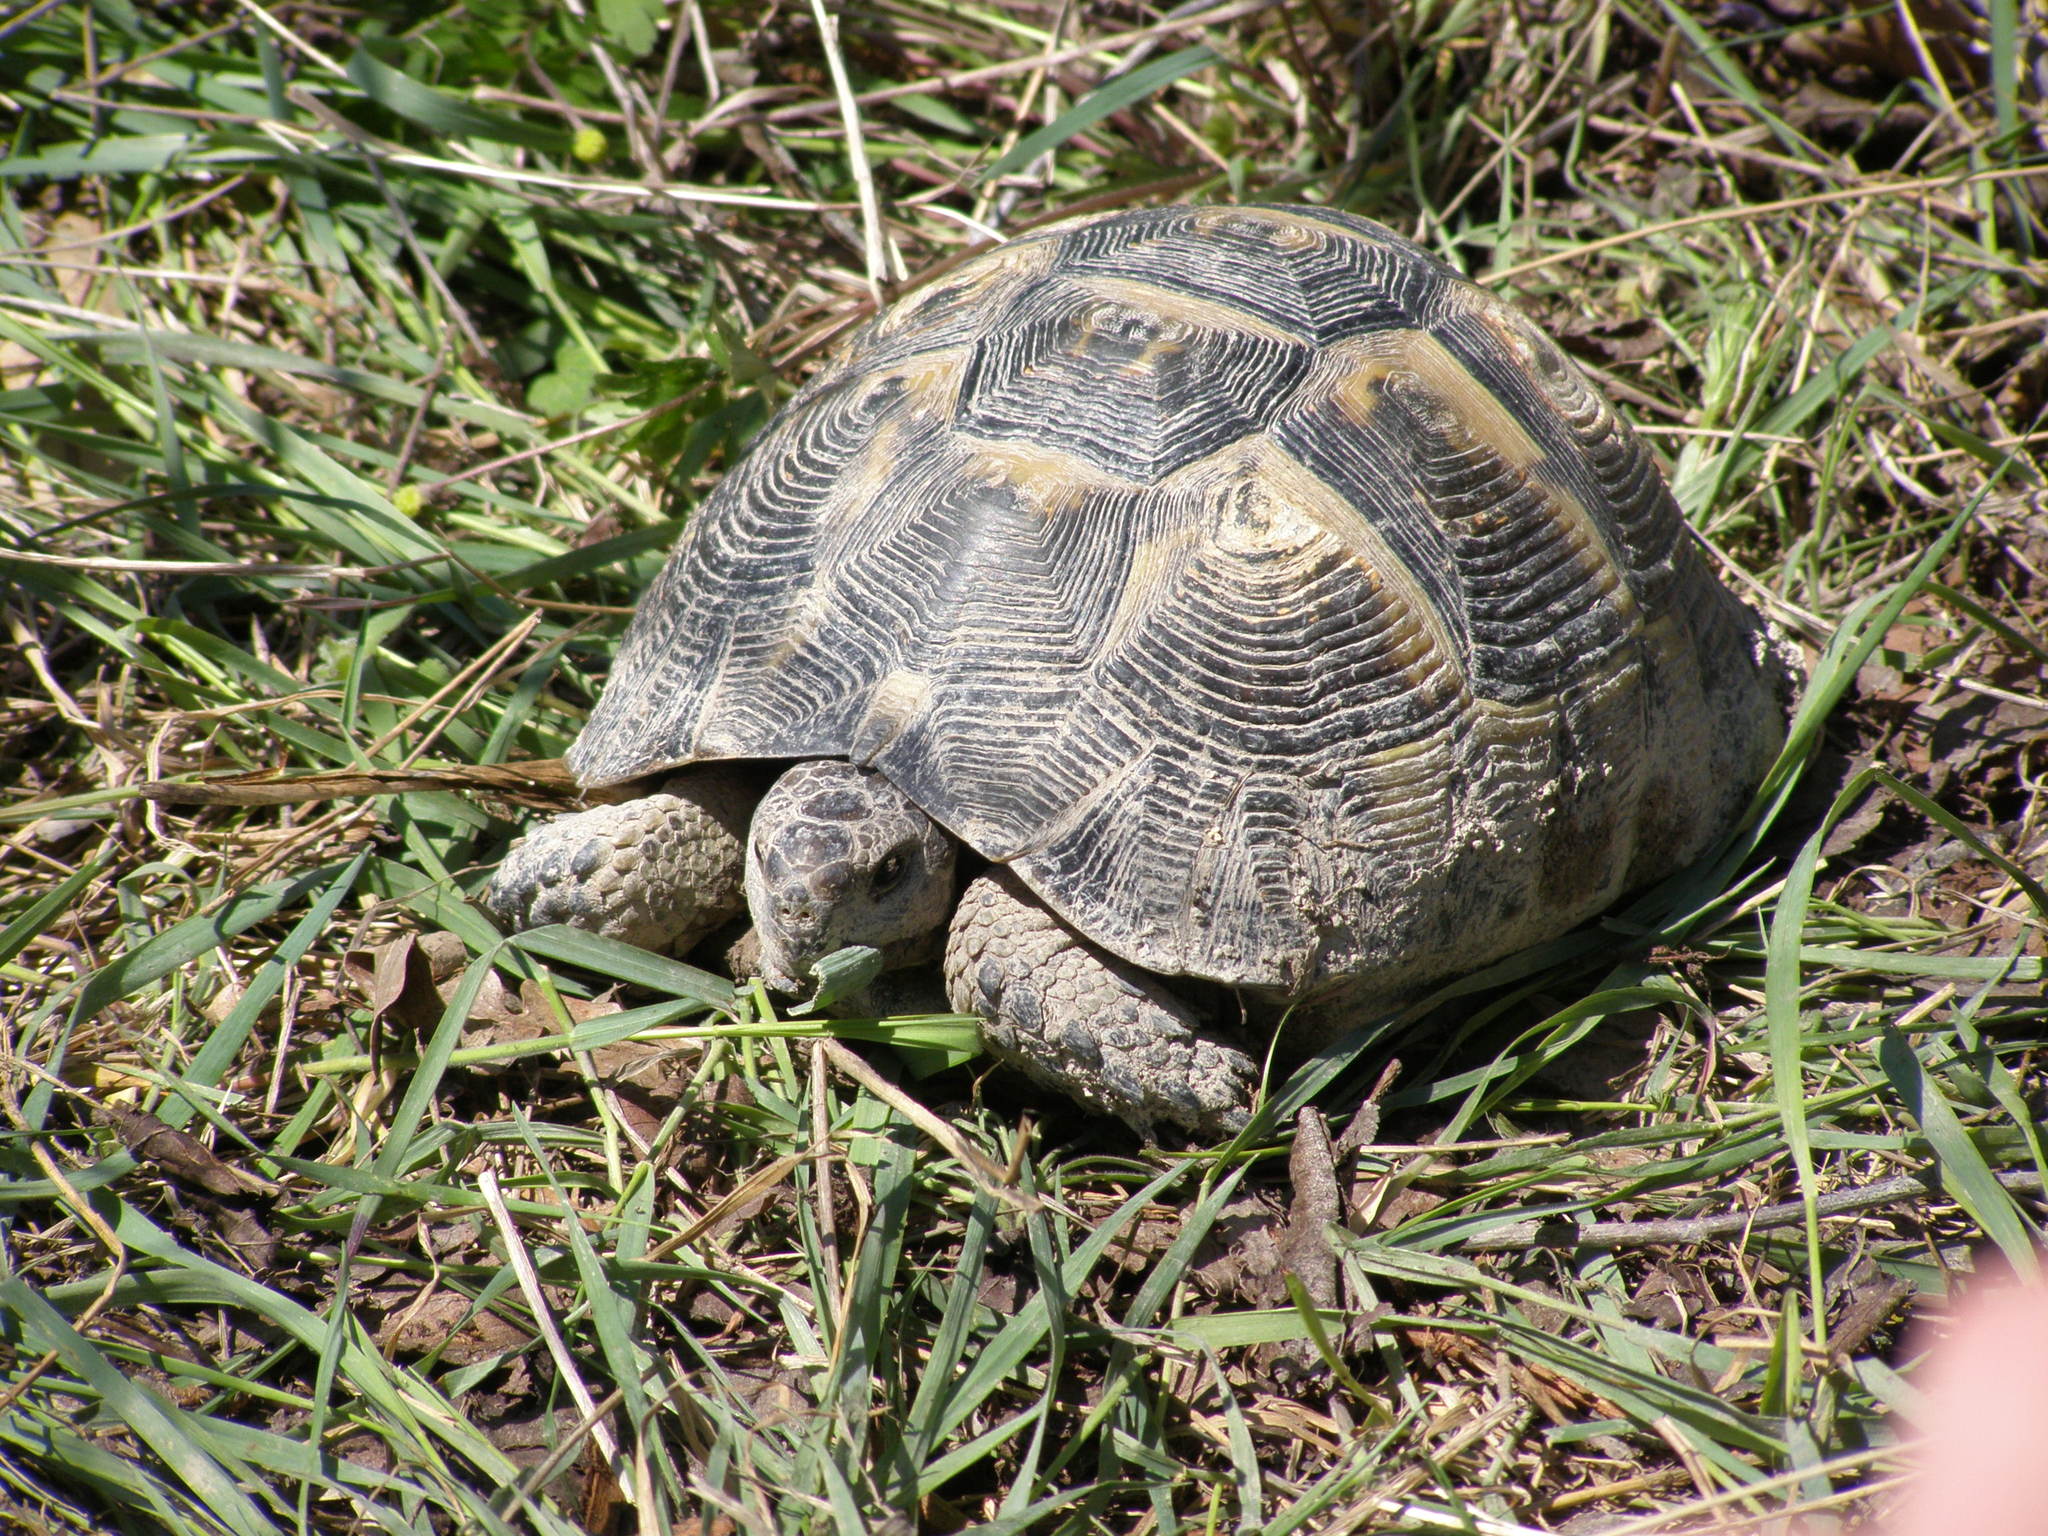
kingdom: Animalia
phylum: Chordata
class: Testudines
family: Testudinidae
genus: Testudo
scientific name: Testudo graeca
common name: Common tortoise
